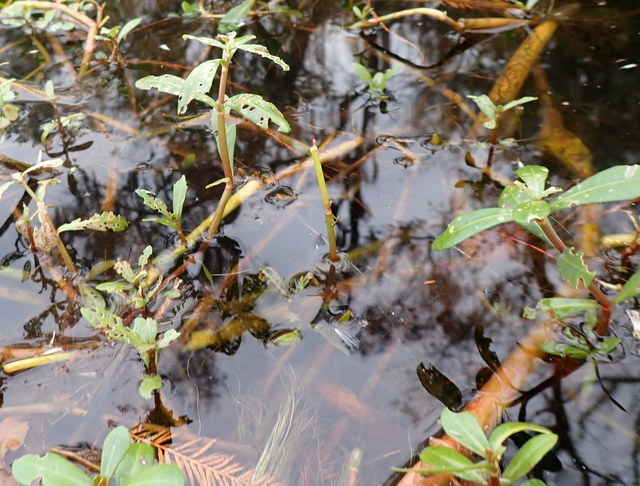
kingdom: Plantae
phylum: Tracheophyta
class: Magnoliopsida
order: Caryophyllales
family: Amaranthaceae
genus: Alternanthera
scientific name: Alternanthera philoxeroides
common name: Alligatorweed
